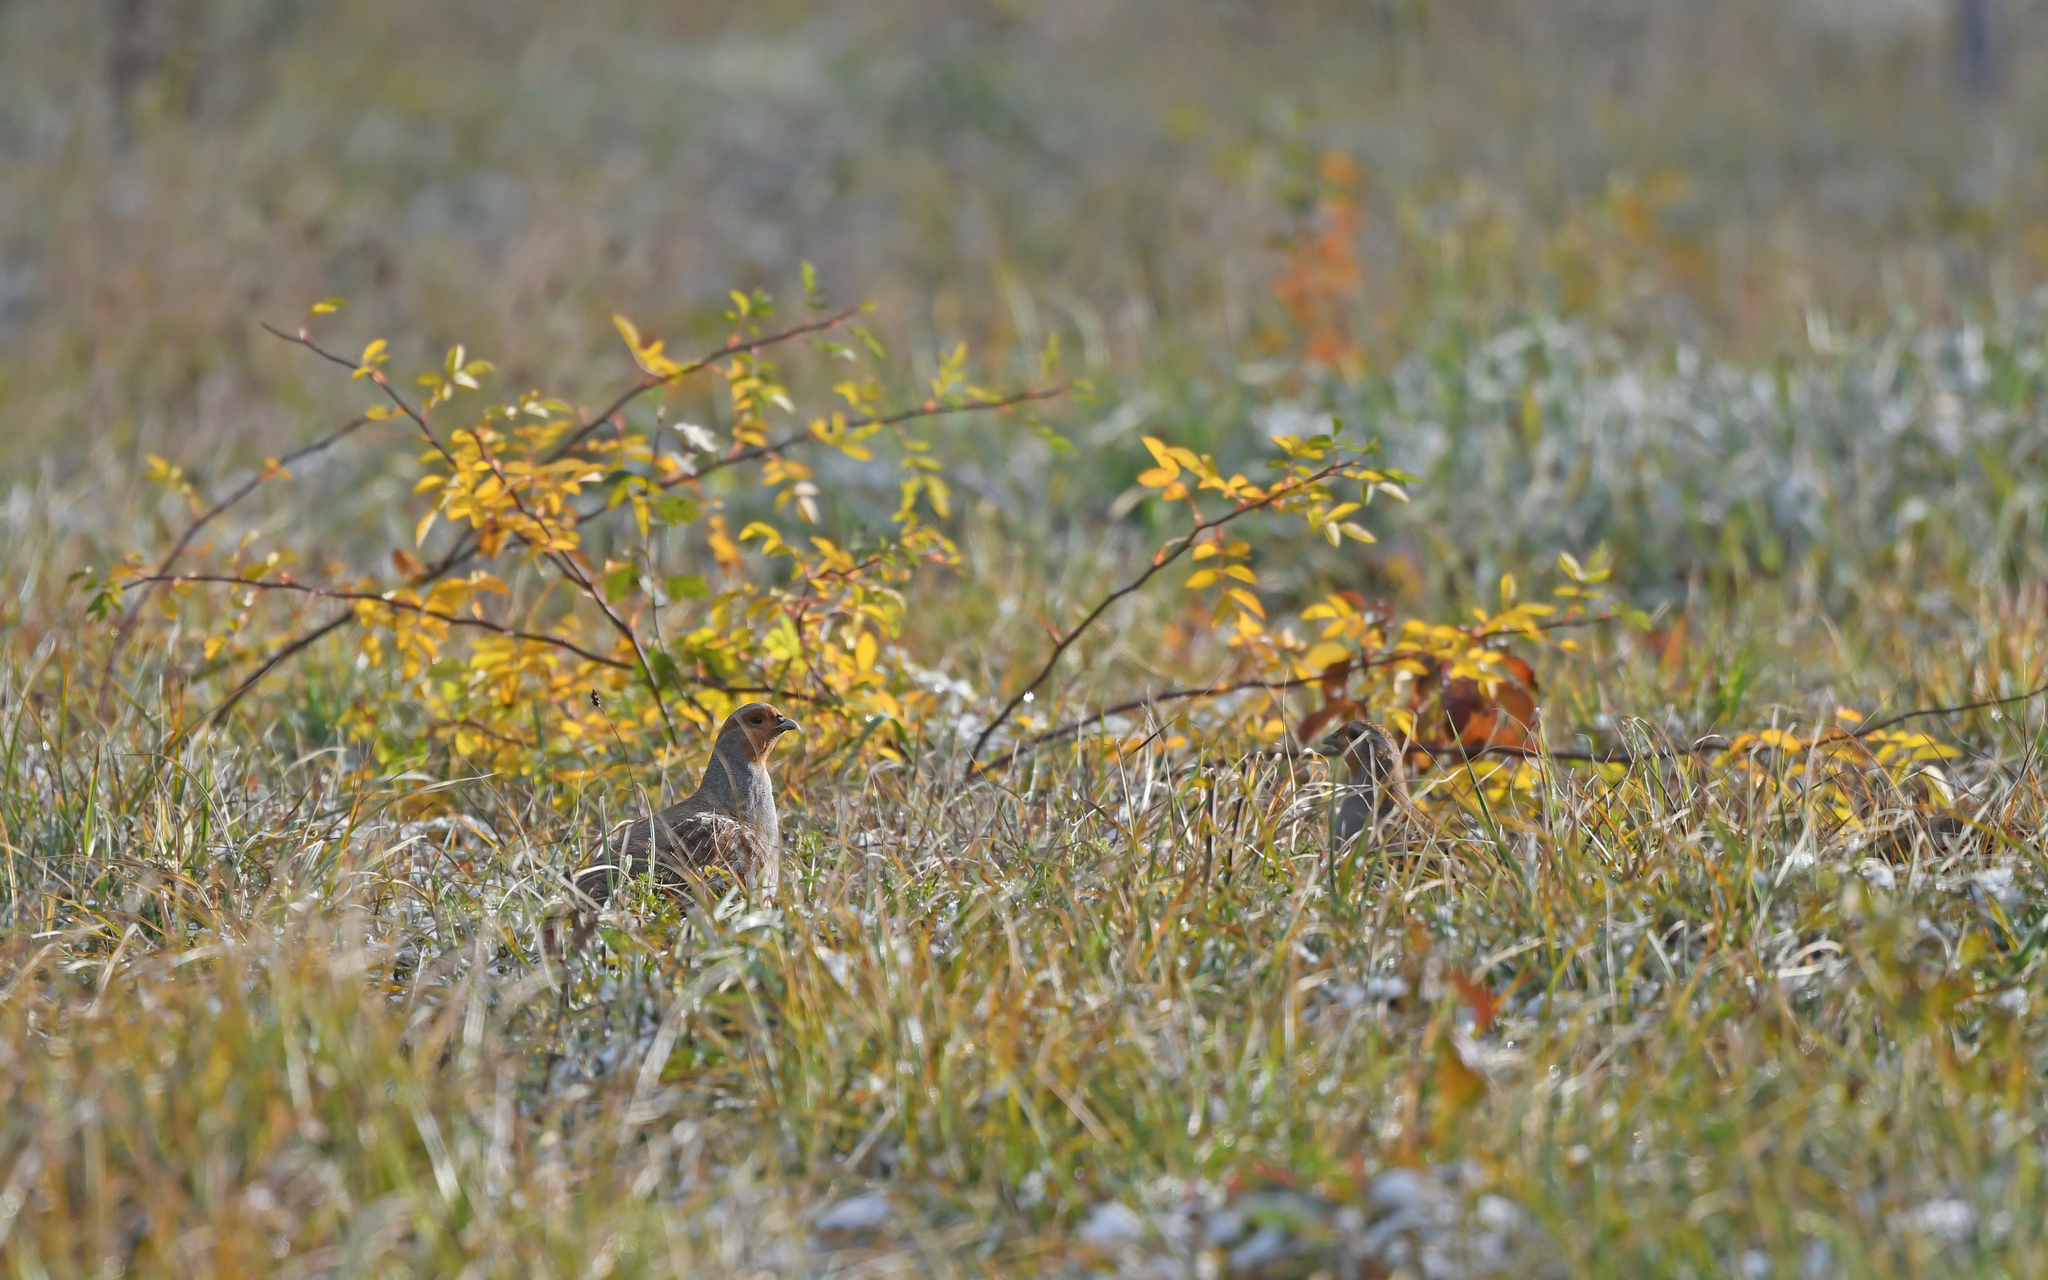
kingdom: Animalia
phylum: Chordata
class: Aves
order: Galliformes
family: Phasianidae
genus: Perdix
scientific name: Perdix perdix
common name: Grey partridge
